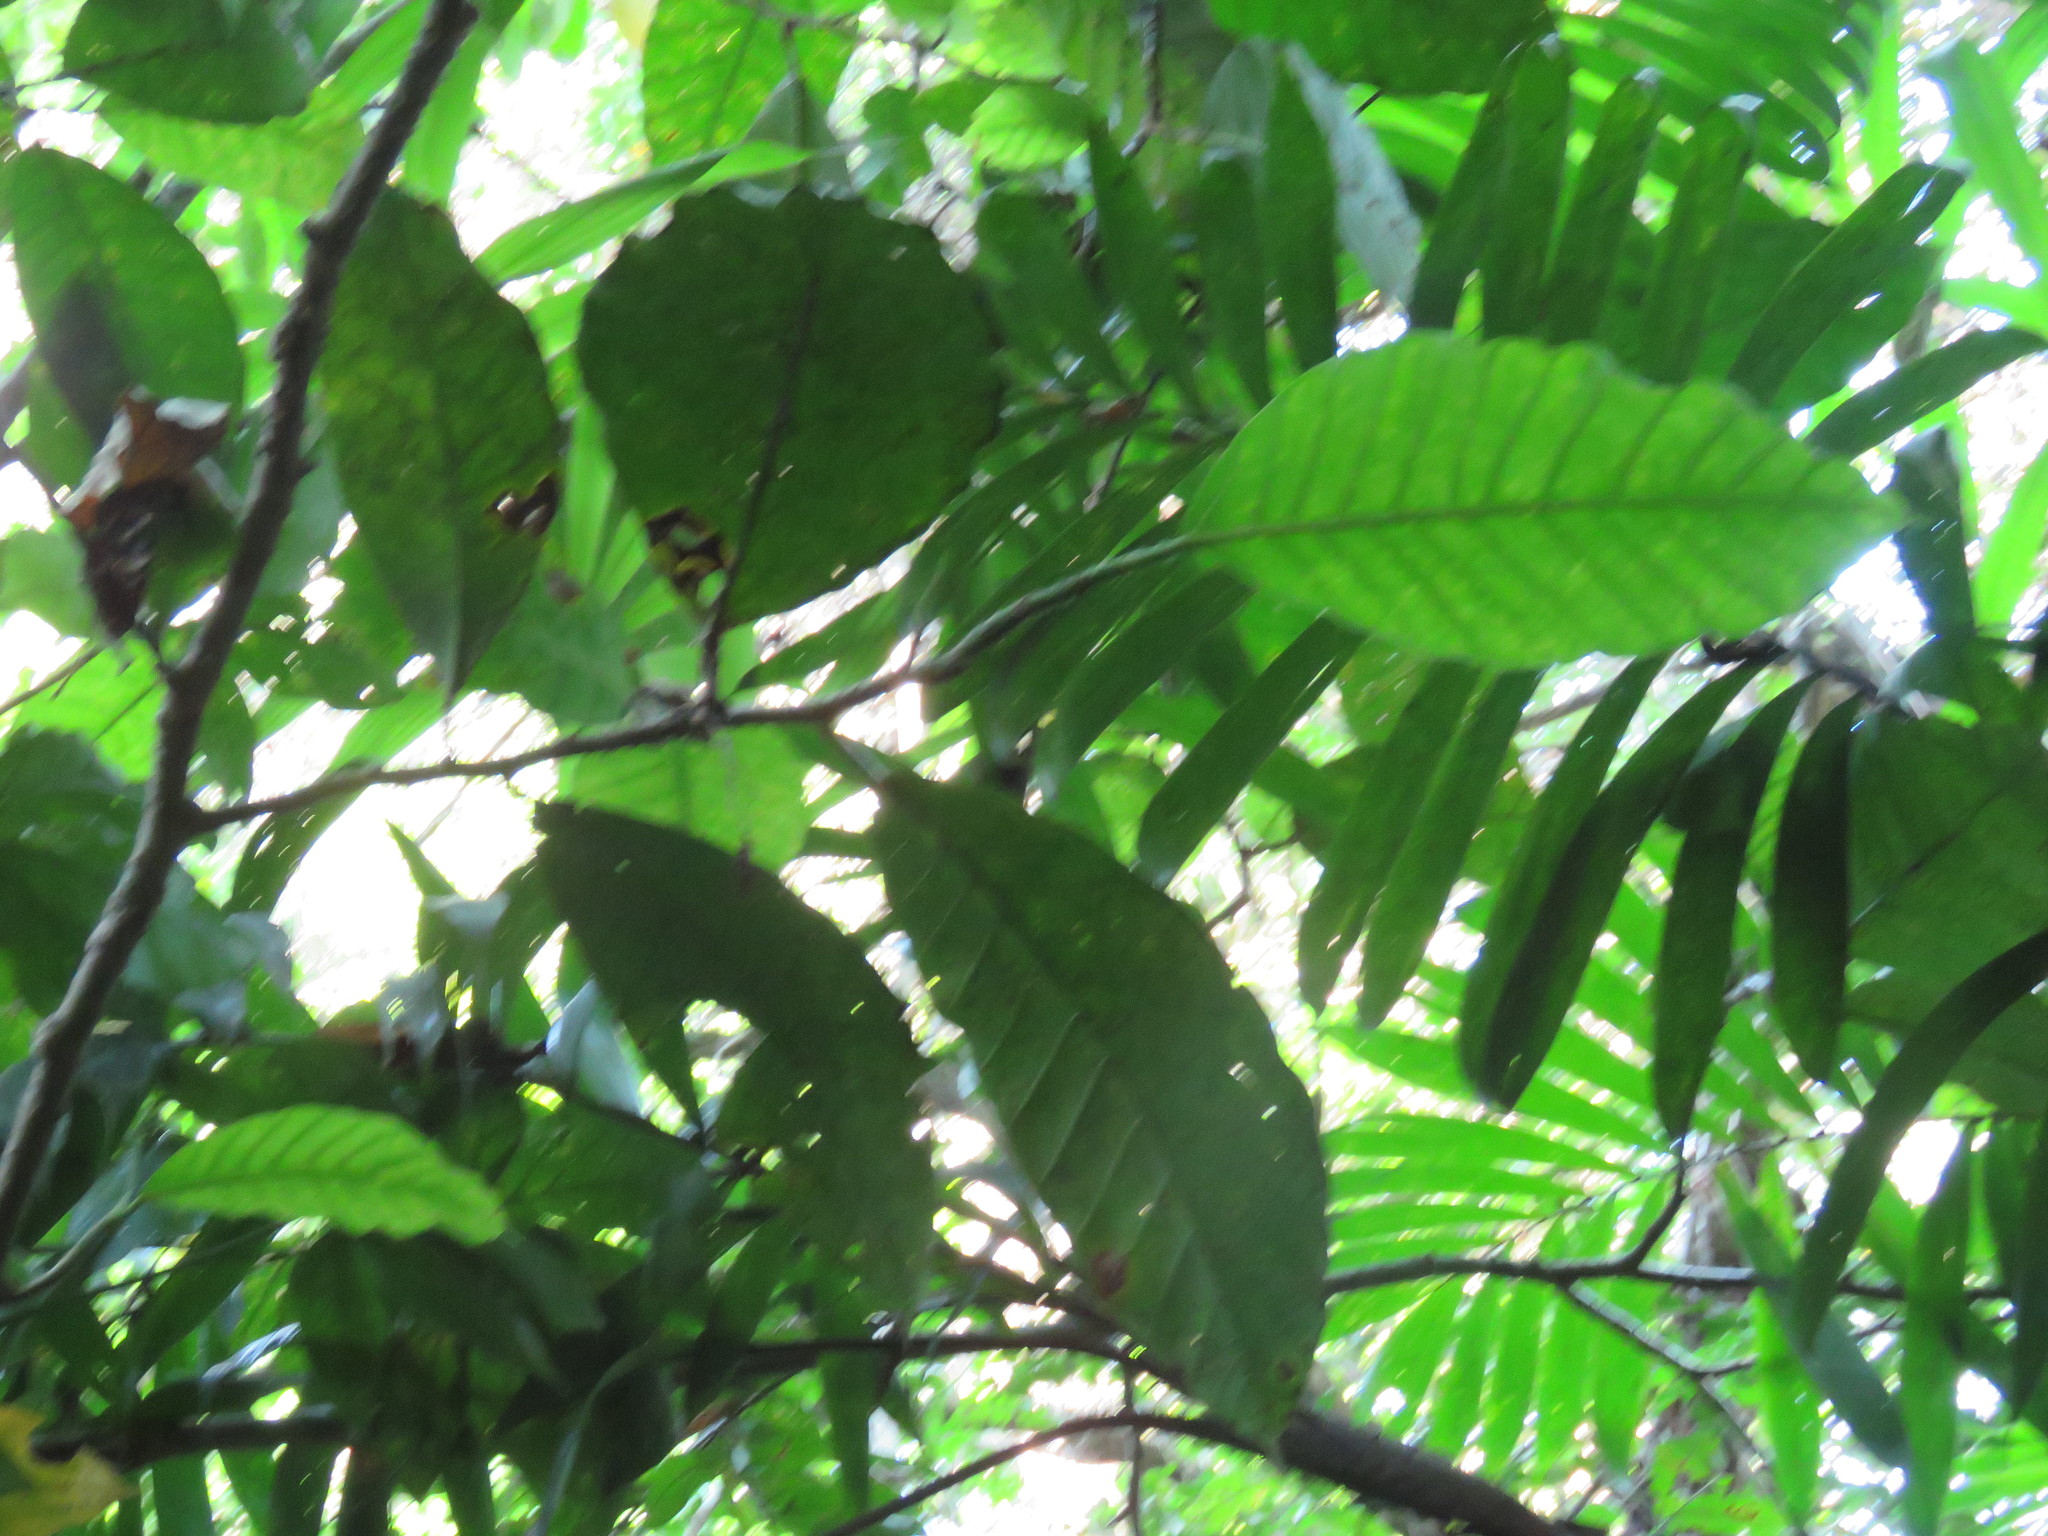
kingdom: Plantae
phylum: Tracheophyta
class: Magnoliopsida
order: Rosales
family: Moraceae
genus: Poulsenia
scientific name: Poulsenia armata
